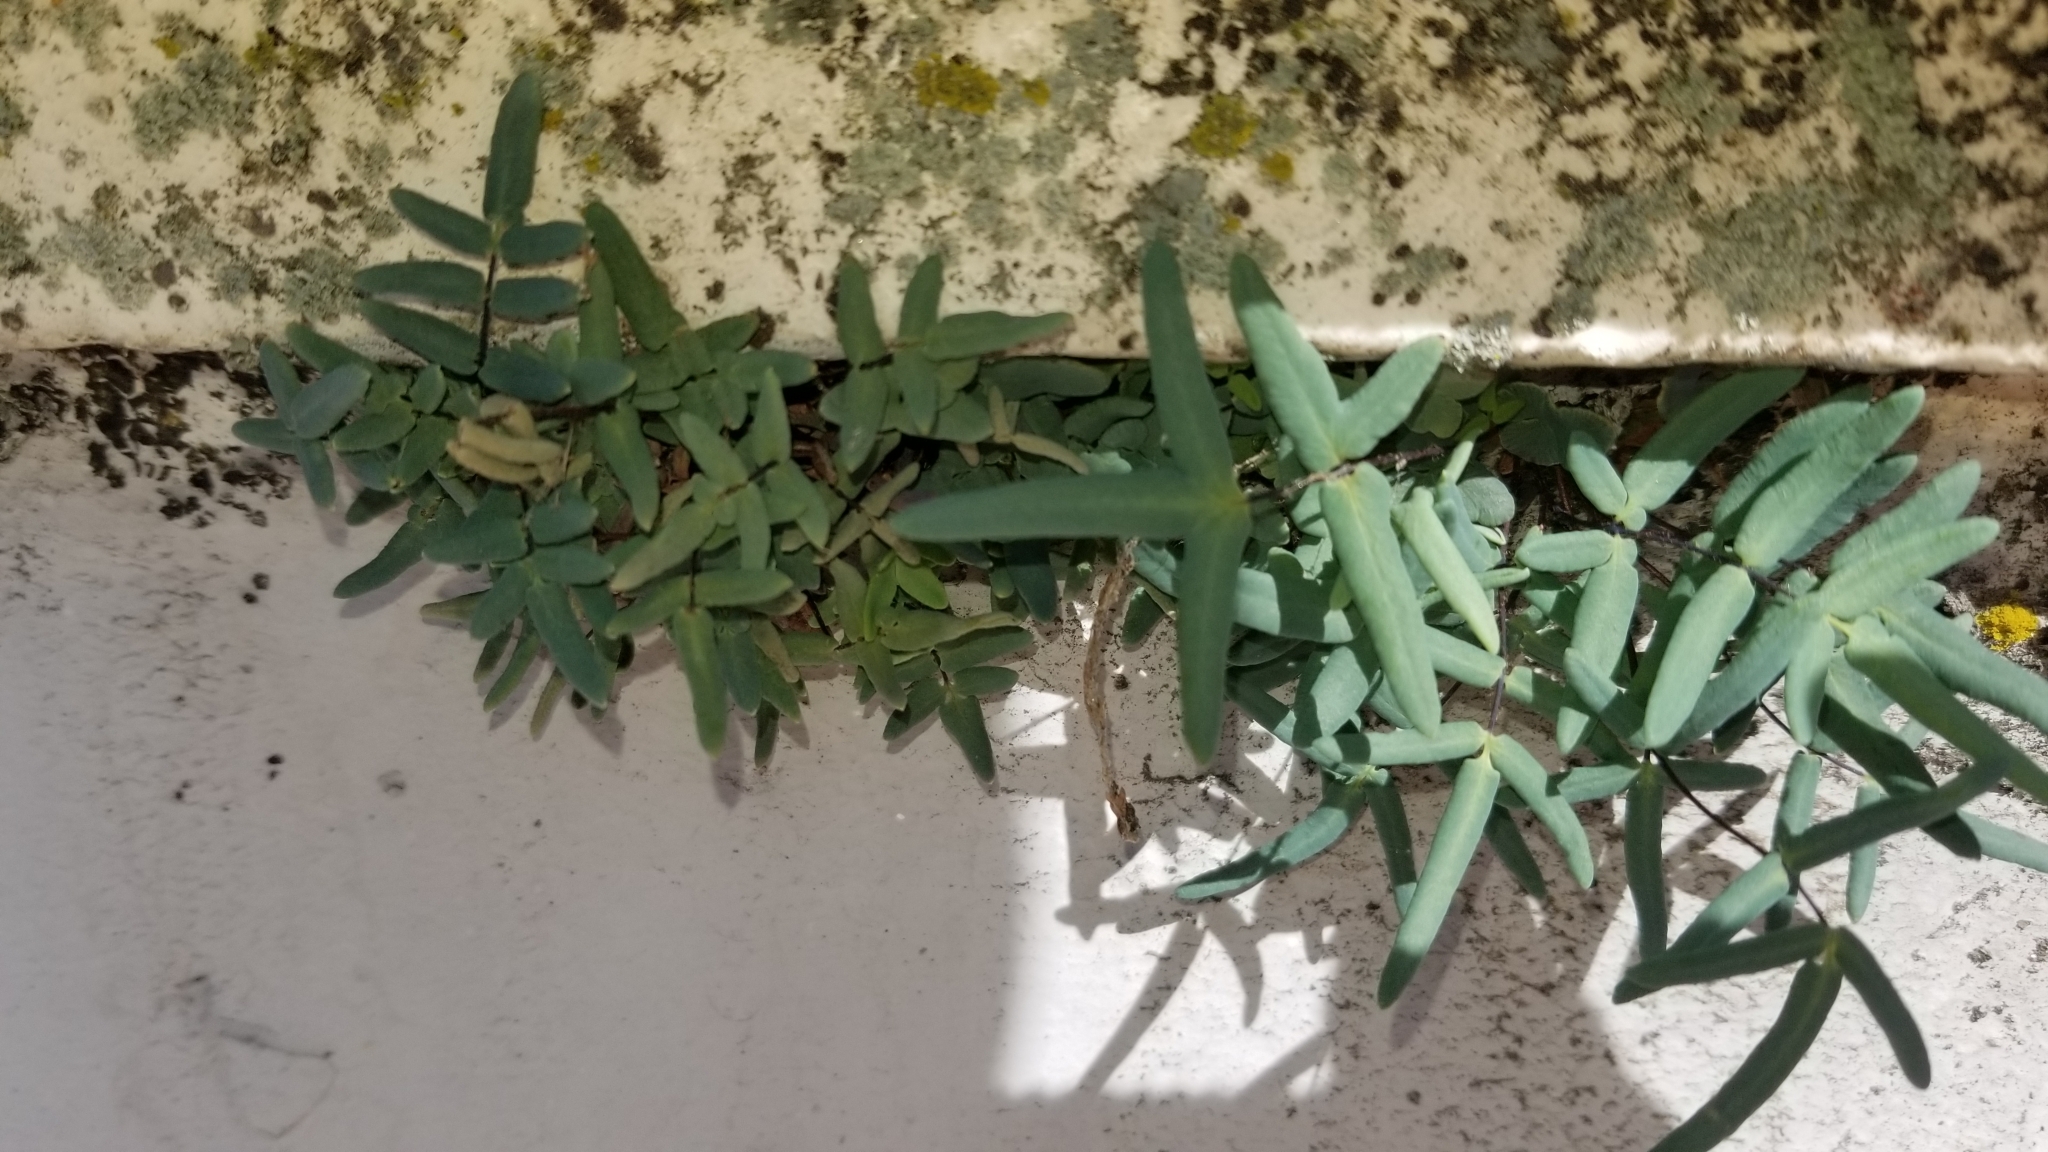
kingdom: Plantae
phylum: Tracheophyta
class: Polypodiopsida
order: Polypodiales
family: Pteridaceae
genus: Pellaea
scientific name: Pellaea glabella
